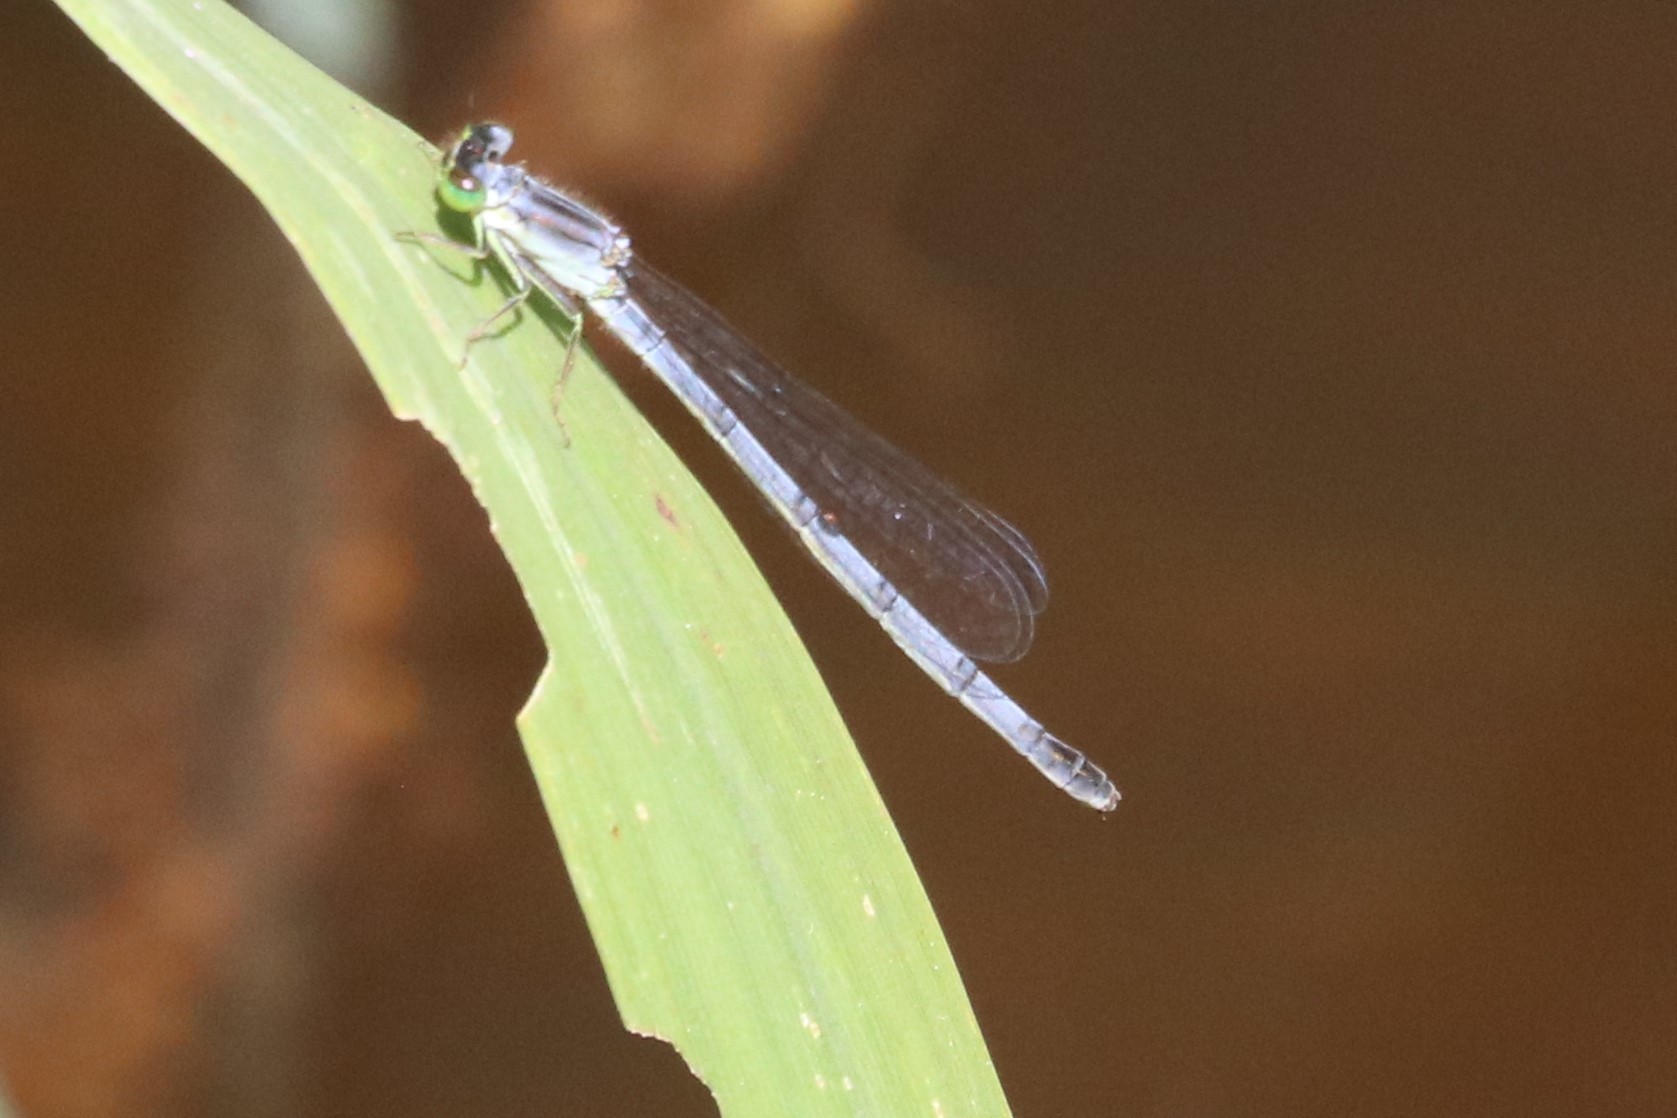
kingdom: Animalia
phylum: Arthropoda
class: Insecta
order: Odonata
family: Coenagrionidae
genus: Ischnura
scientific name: Ischnura verticalis
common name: Eastern forktail
